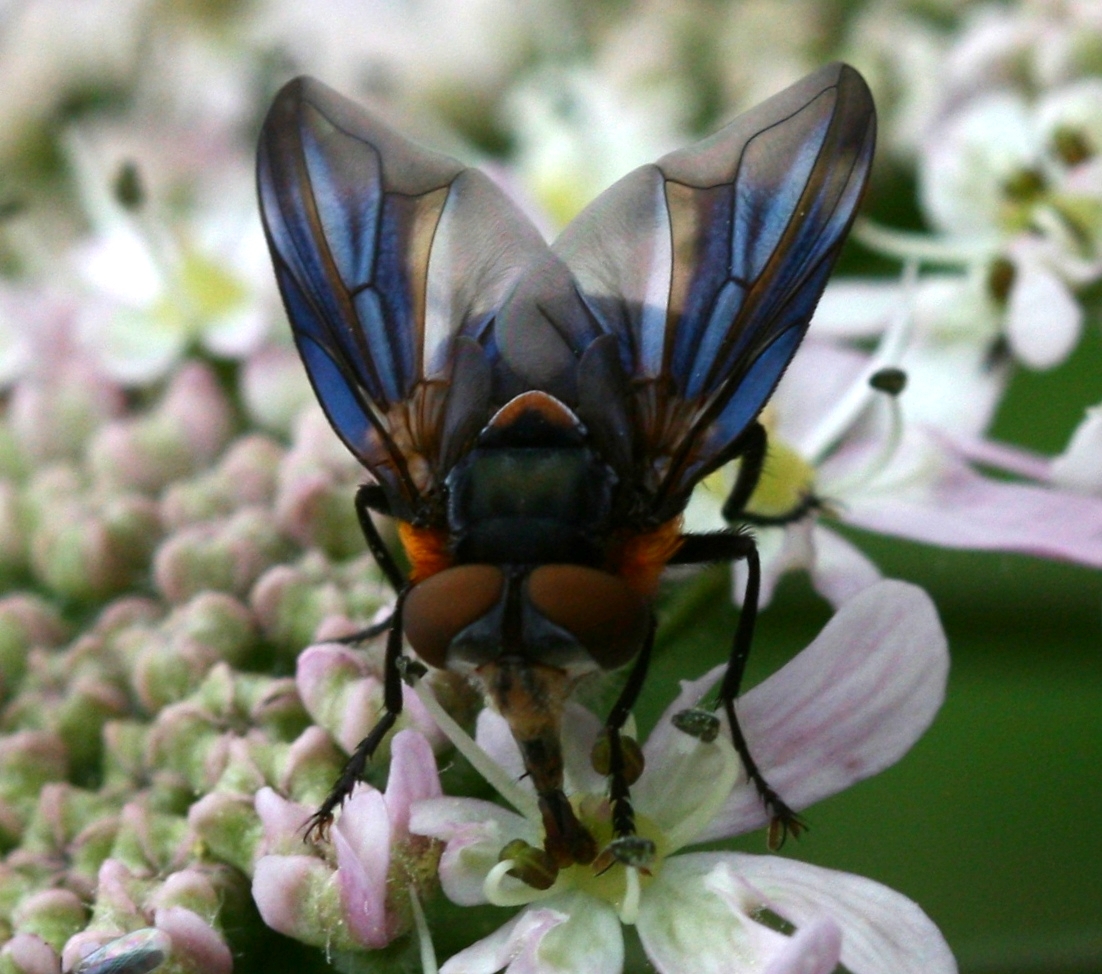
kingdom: Animalia
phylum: Arthropoda
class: Insecta
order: Diptera
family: Tachinidae
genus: Phasia
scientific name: Phasia hemiptera
